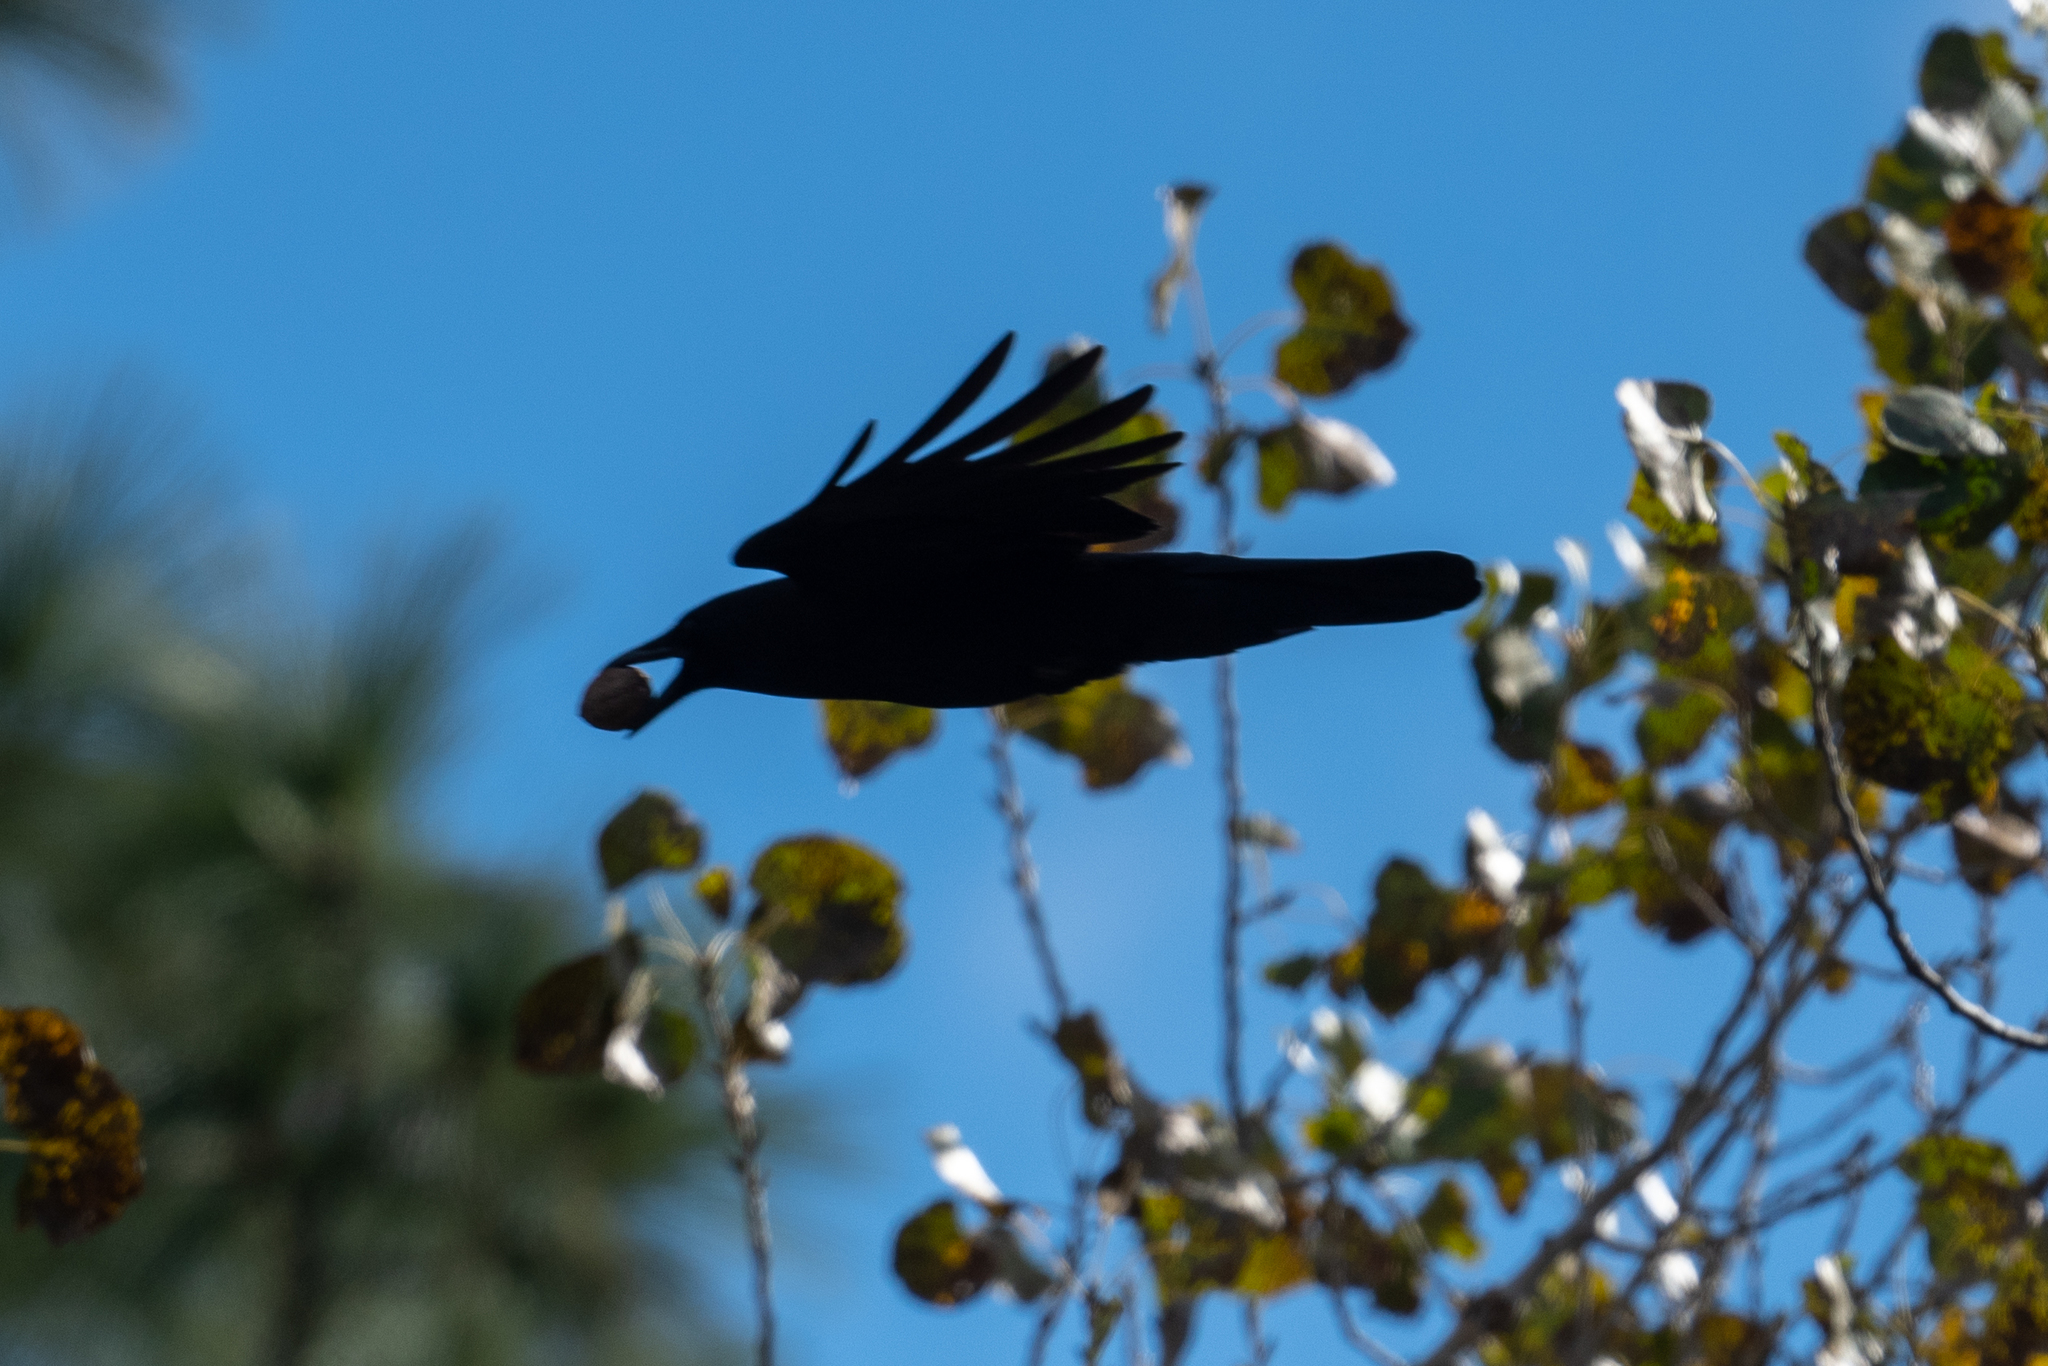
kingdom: Animalia
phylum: Chordata
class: Aves
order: Passeriformes
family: Corvidae
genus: Corvus
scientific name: Corvus brachyrhynchos
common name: American crow
